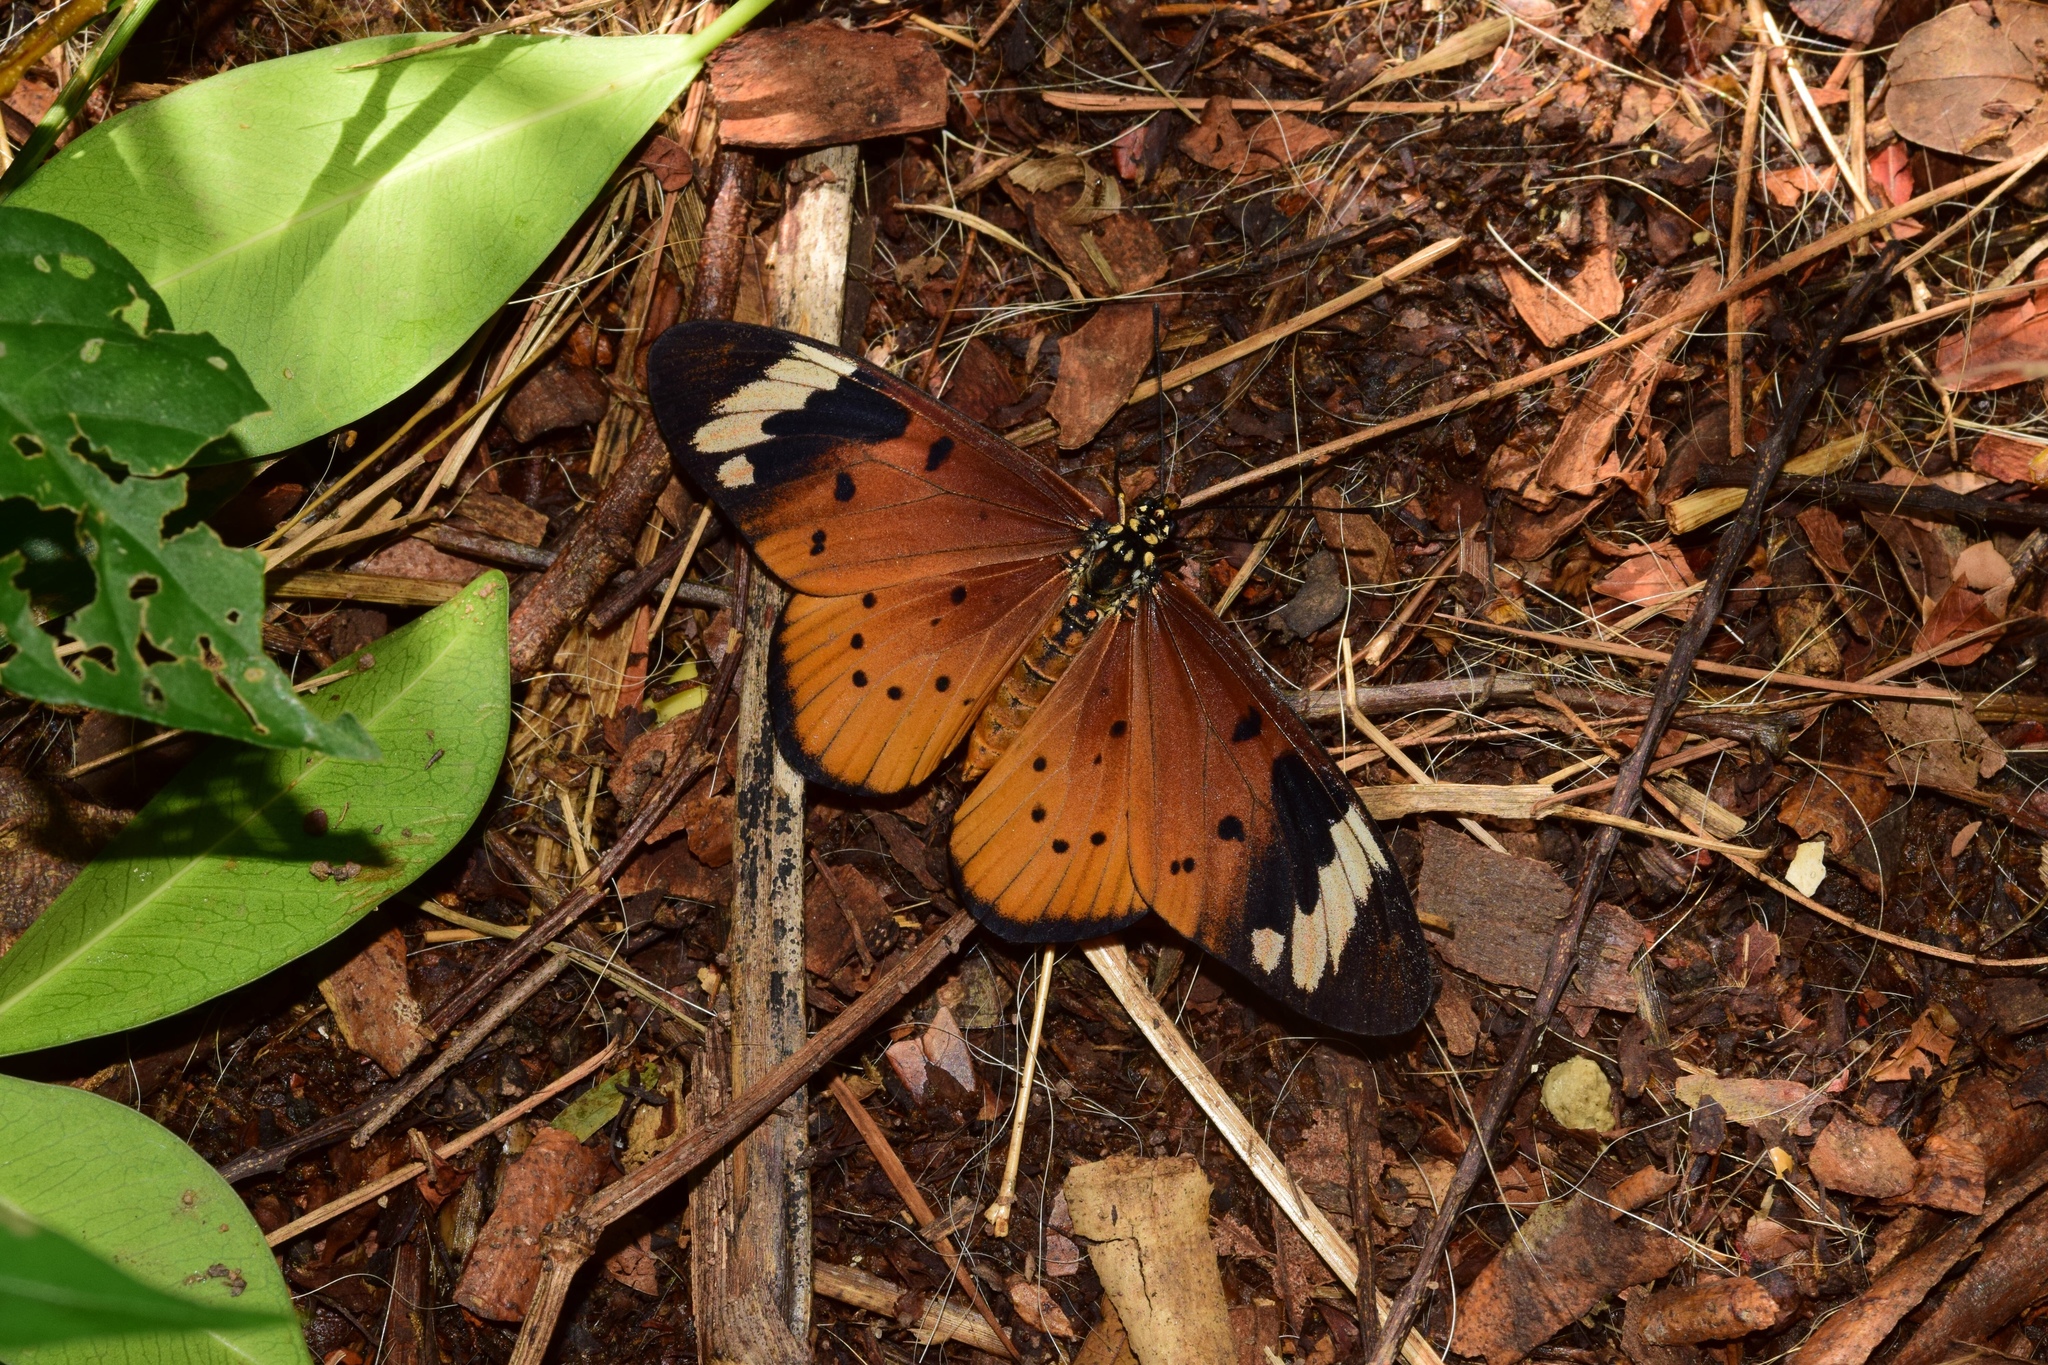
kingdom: Animalia
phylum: Arthropoda
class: Insecta
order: Lepidoptera
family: Nymphalidae
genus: Acraea
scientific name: Acraea Telchinia encedon
